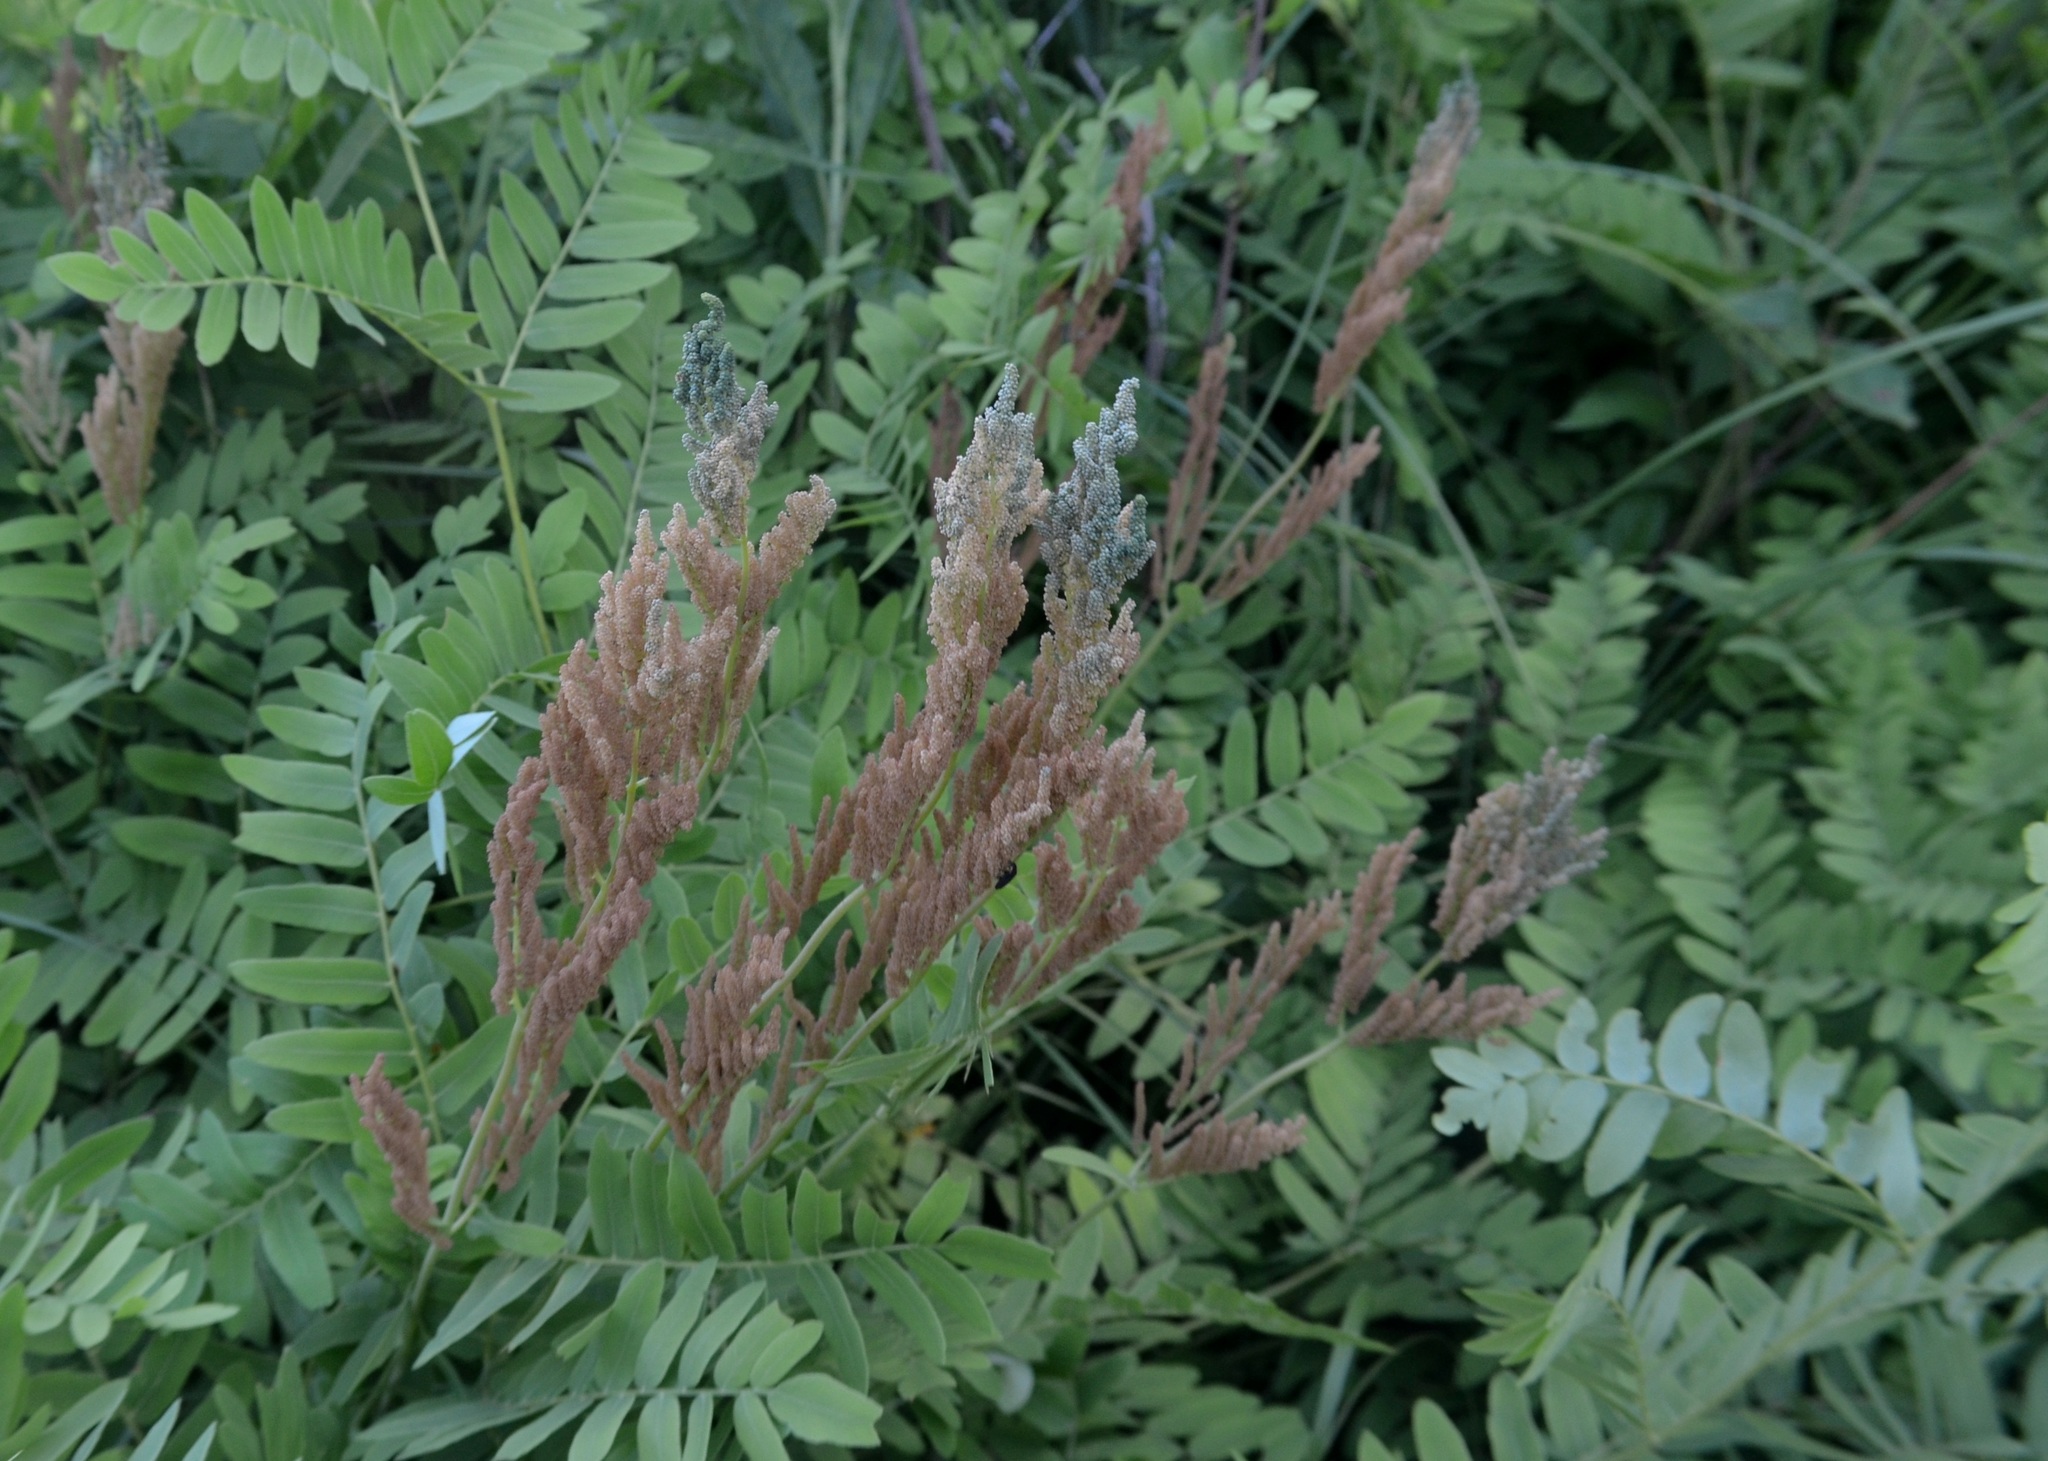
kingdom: Plantae
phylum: Tracheophyta
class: Polypodiopsida
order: Osmundales
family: Osmundaceae
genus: Osmunda
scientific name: Osmunda spectabilis
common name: American royal fern
